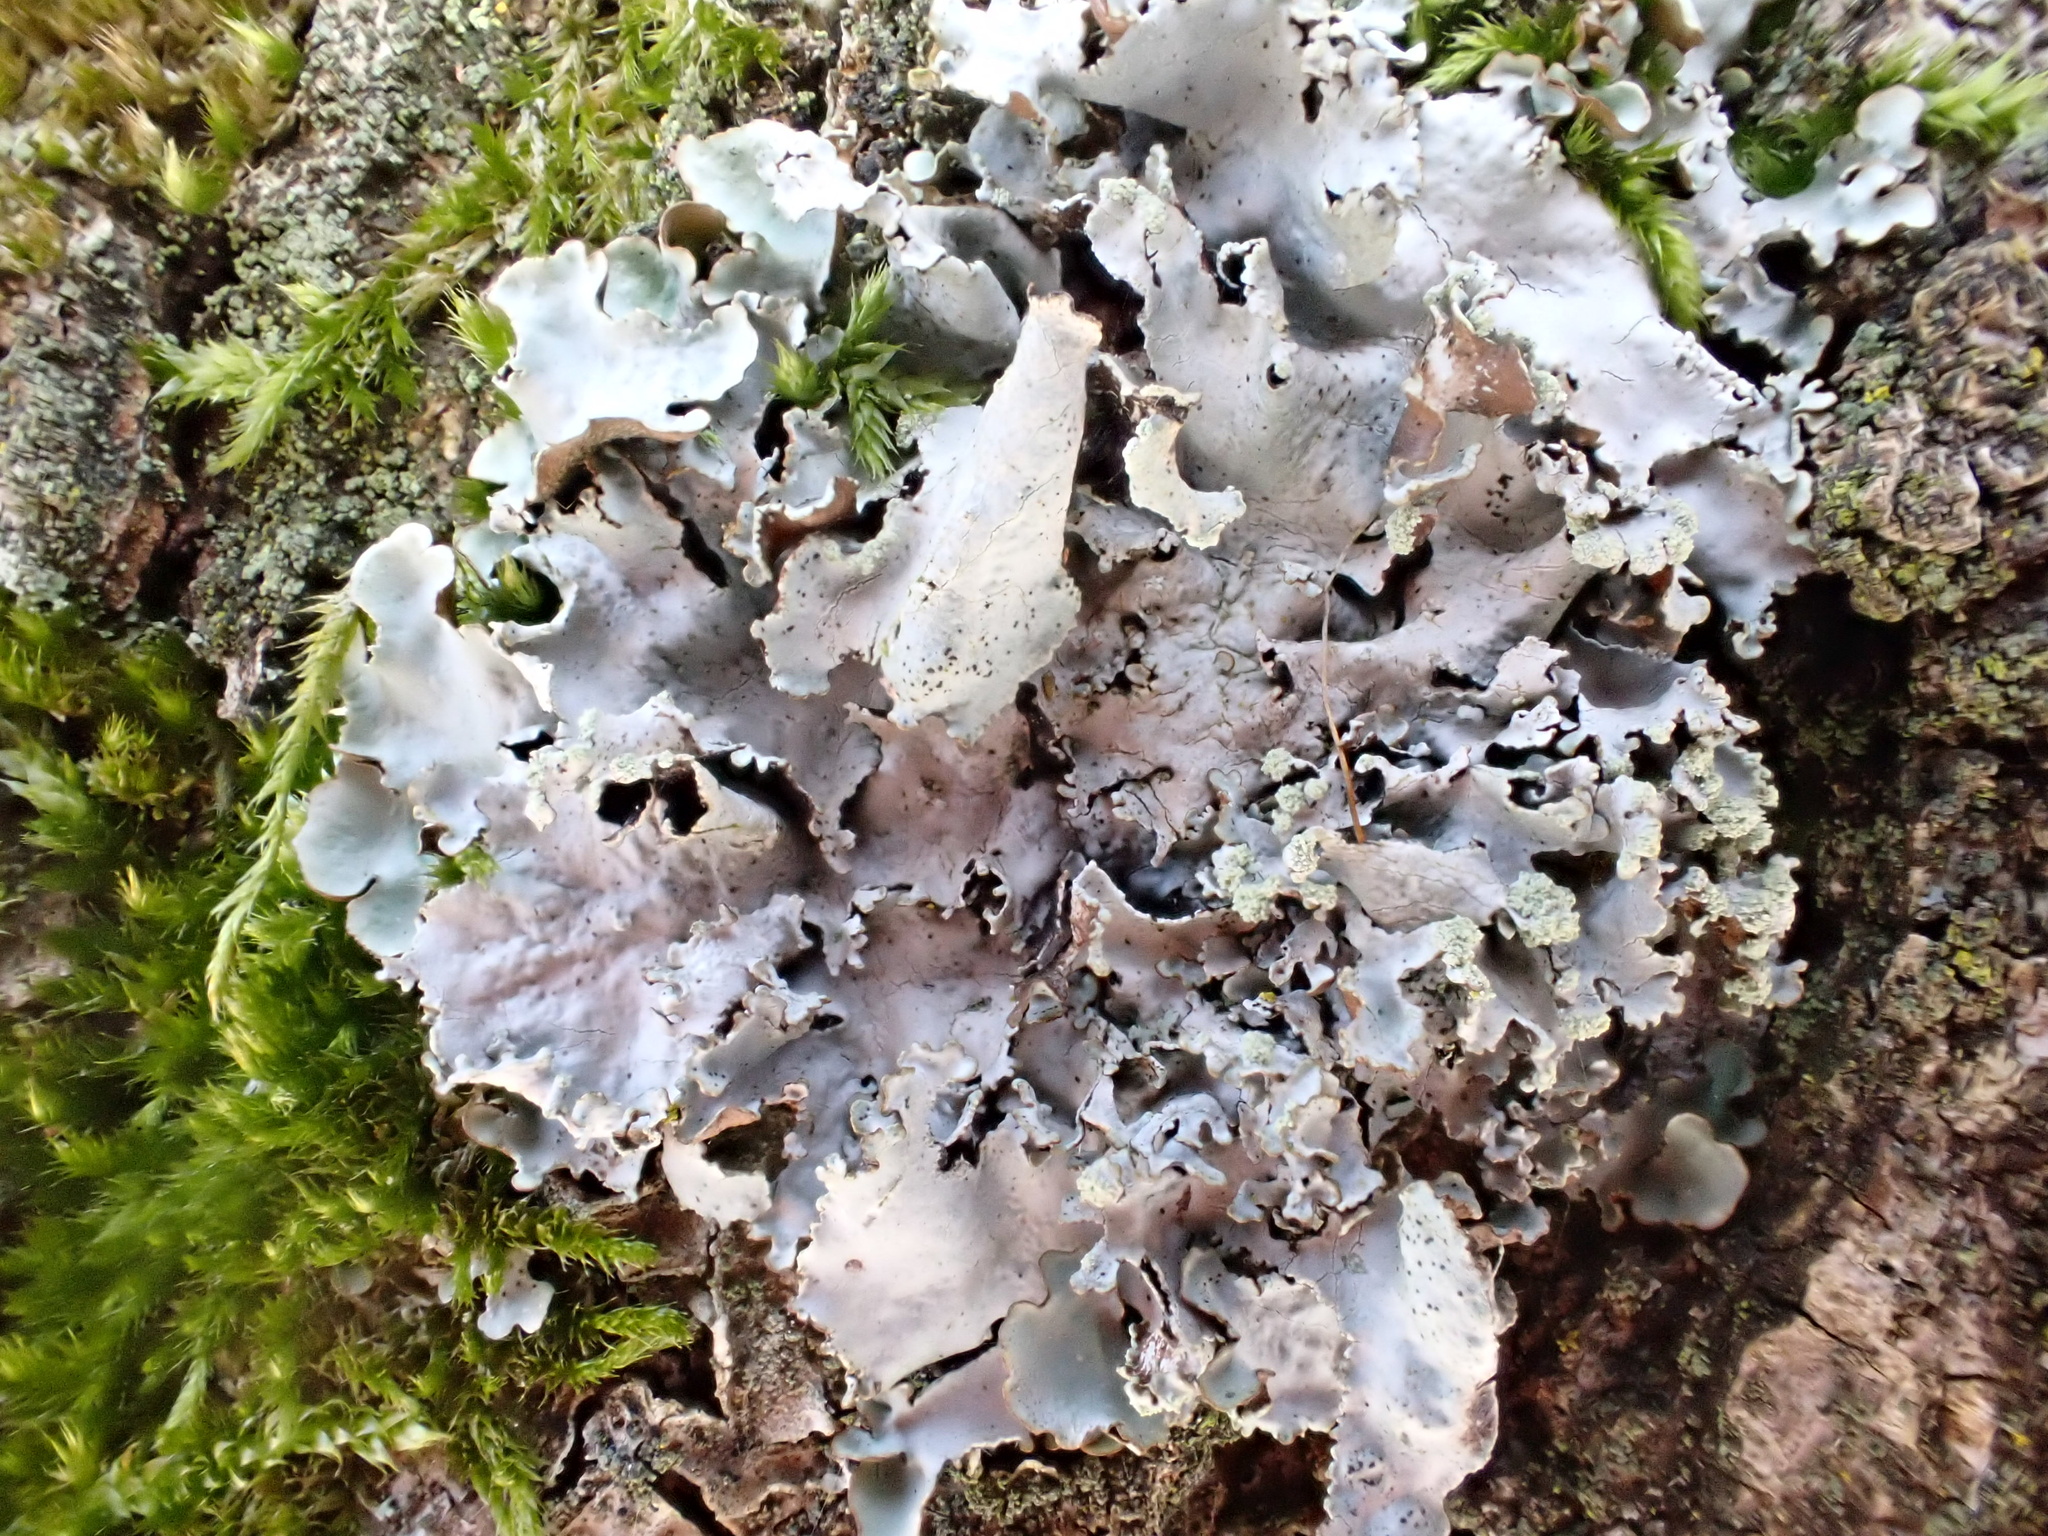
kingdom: Fungi
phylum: Ascomycota
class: Lecanoromycetes
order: Lecanorales
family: Parmeliaceae
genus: Parmotrema
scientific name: Parmotrema perlatum
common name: Black stone flower
